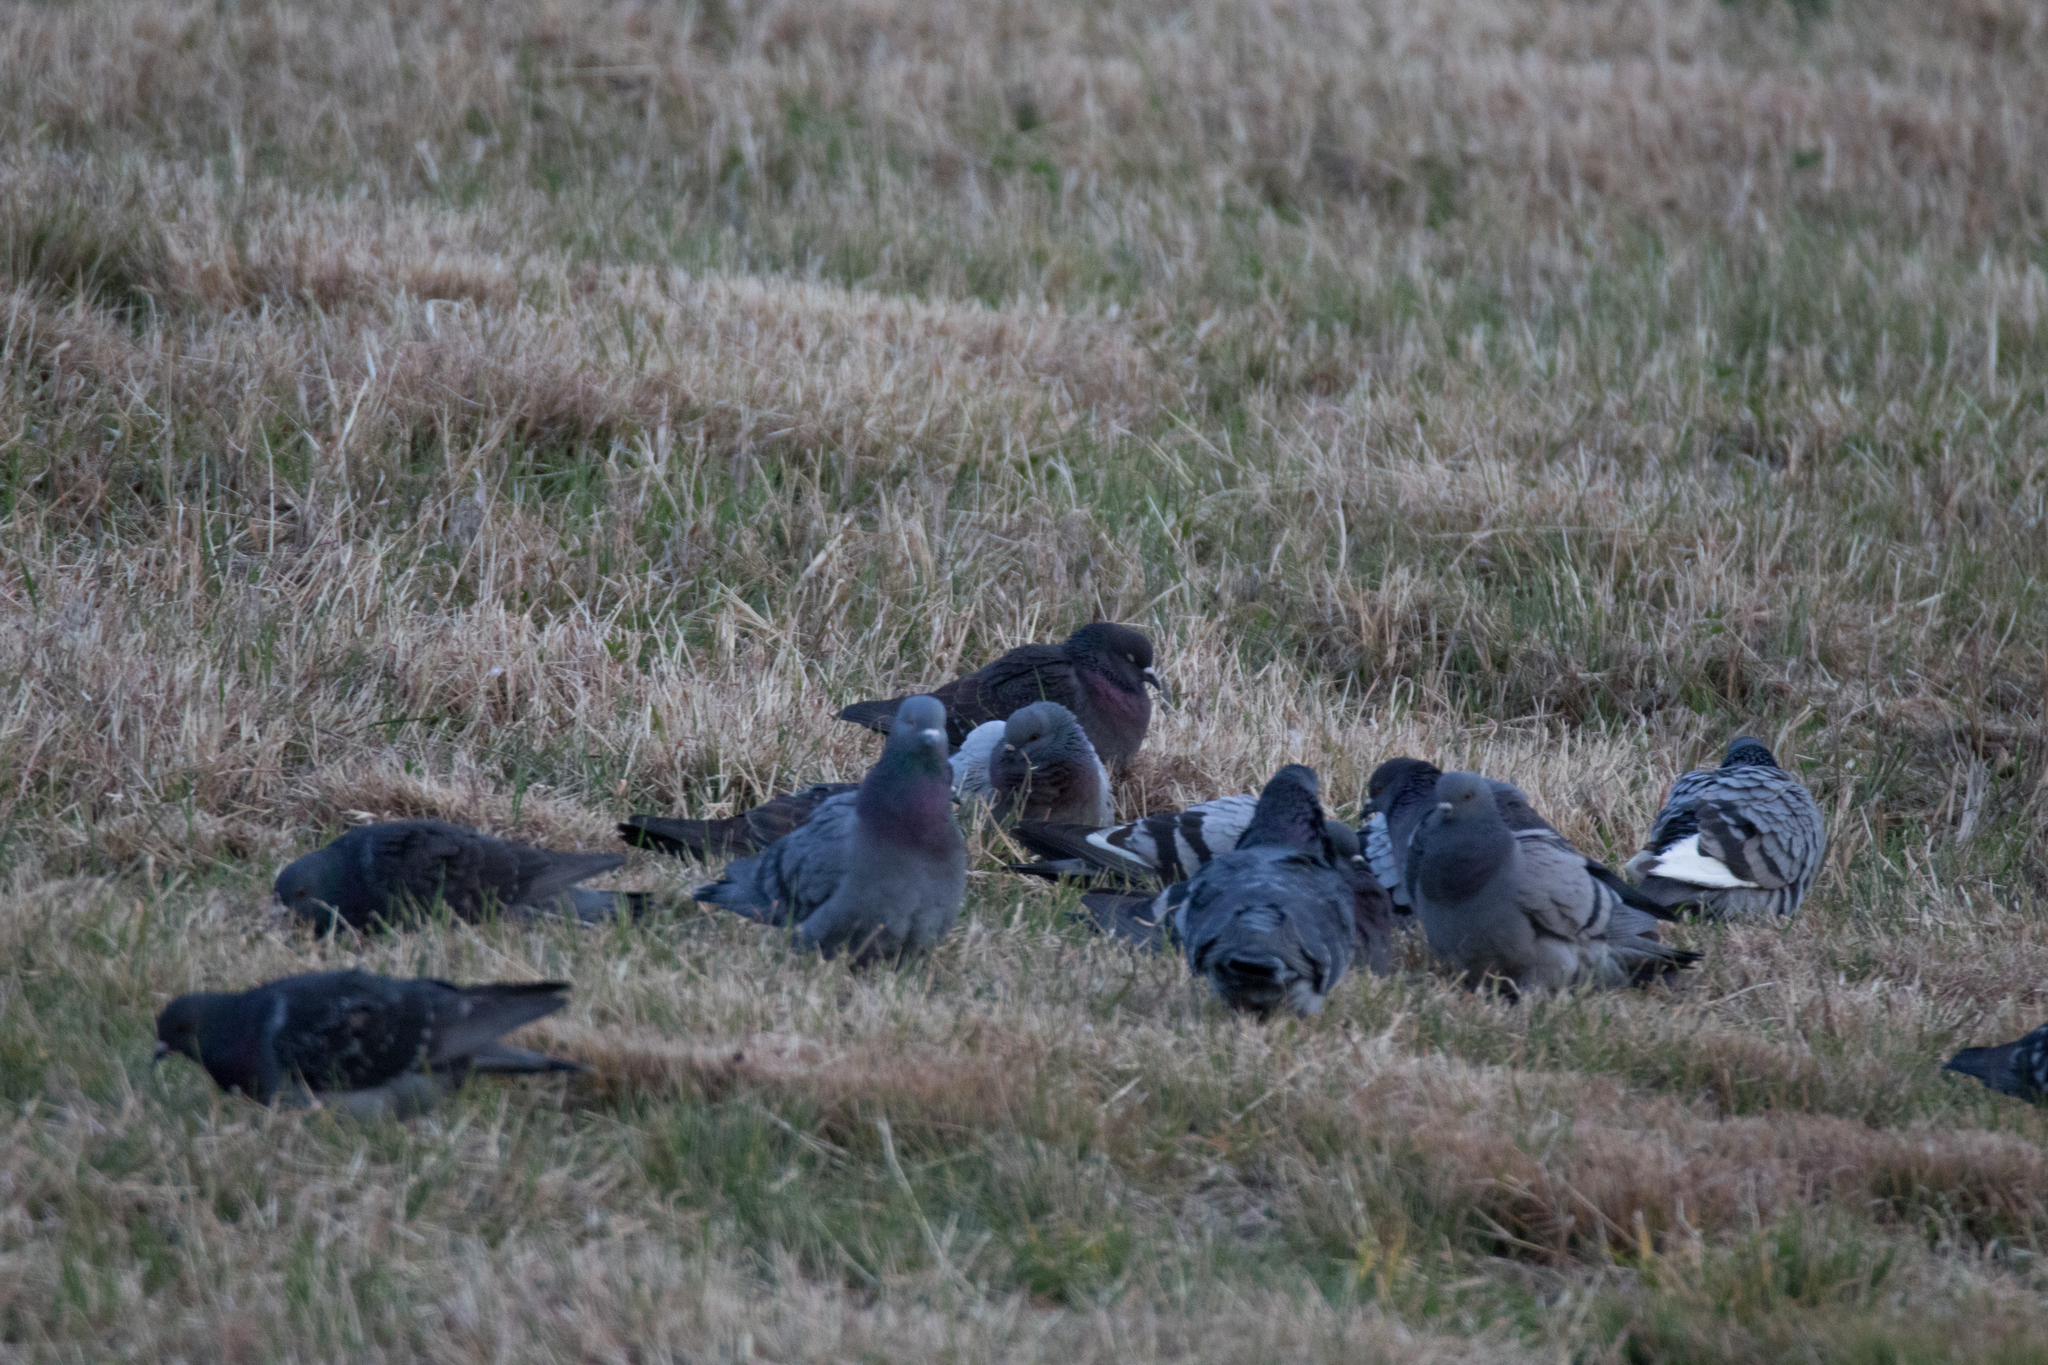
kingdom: Animalia
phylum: Chordata
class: Aves
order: Columbiformes
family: Columbidae
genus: Columba
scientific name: Columba livia
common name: Rock pigeon
